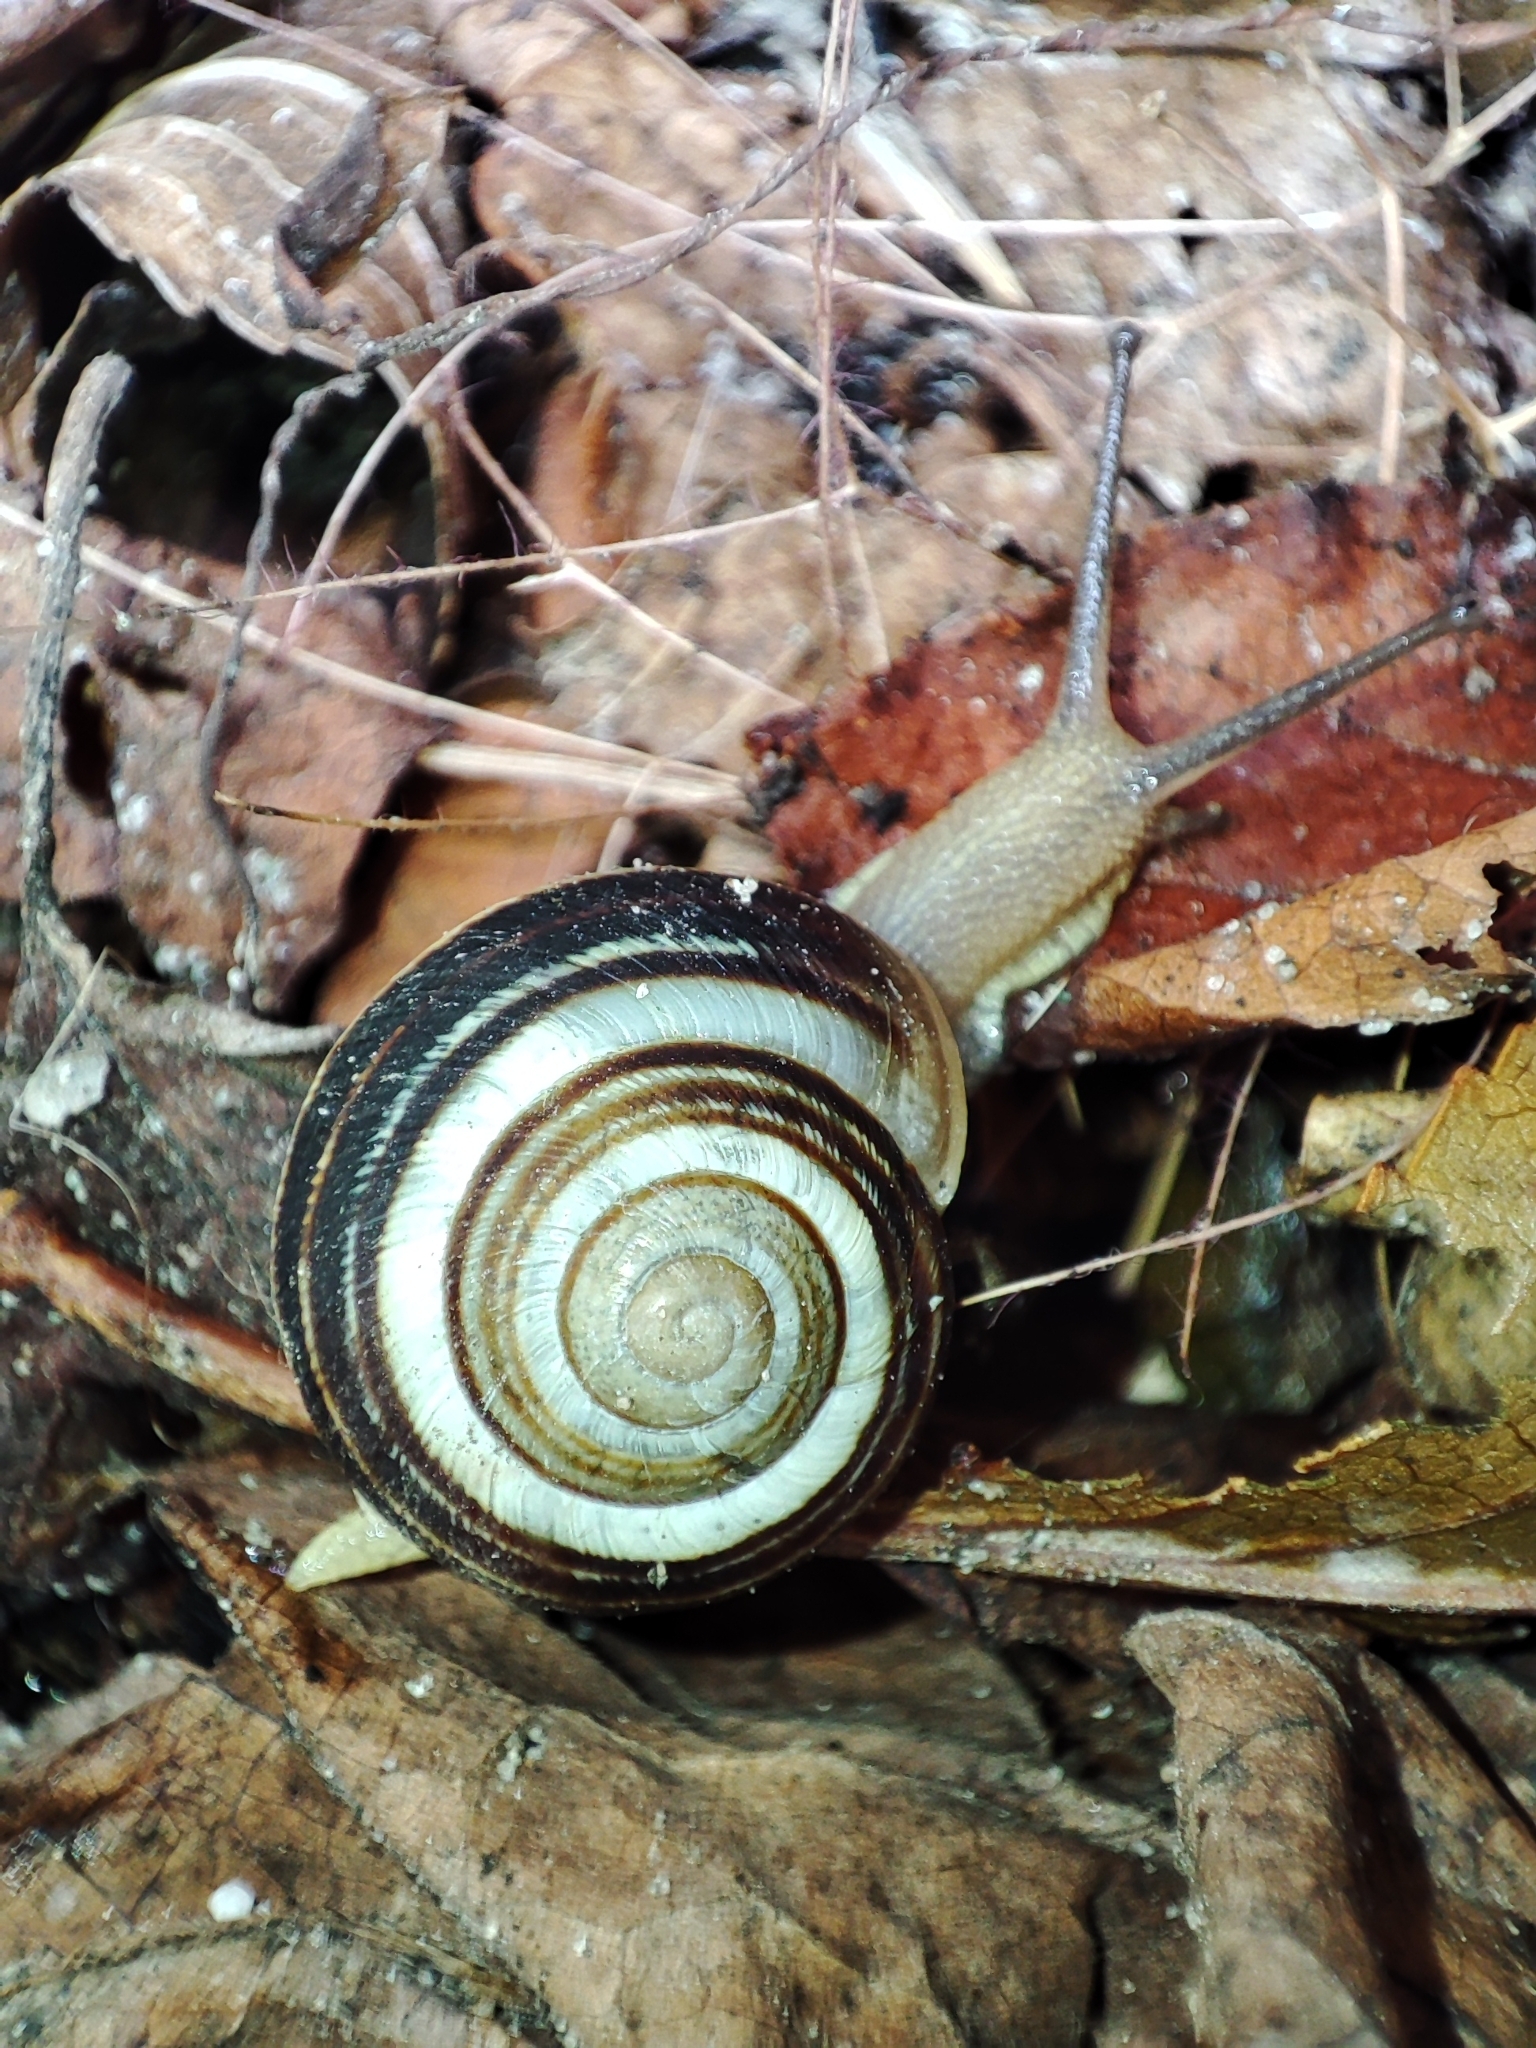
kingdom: Animalia
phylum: Mollusca
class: Gastropoda
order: Stylommatophora
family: Helicidae
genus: Caucasotachea
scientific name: Caucasotachea vindobonensis
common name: European helicid land snail
